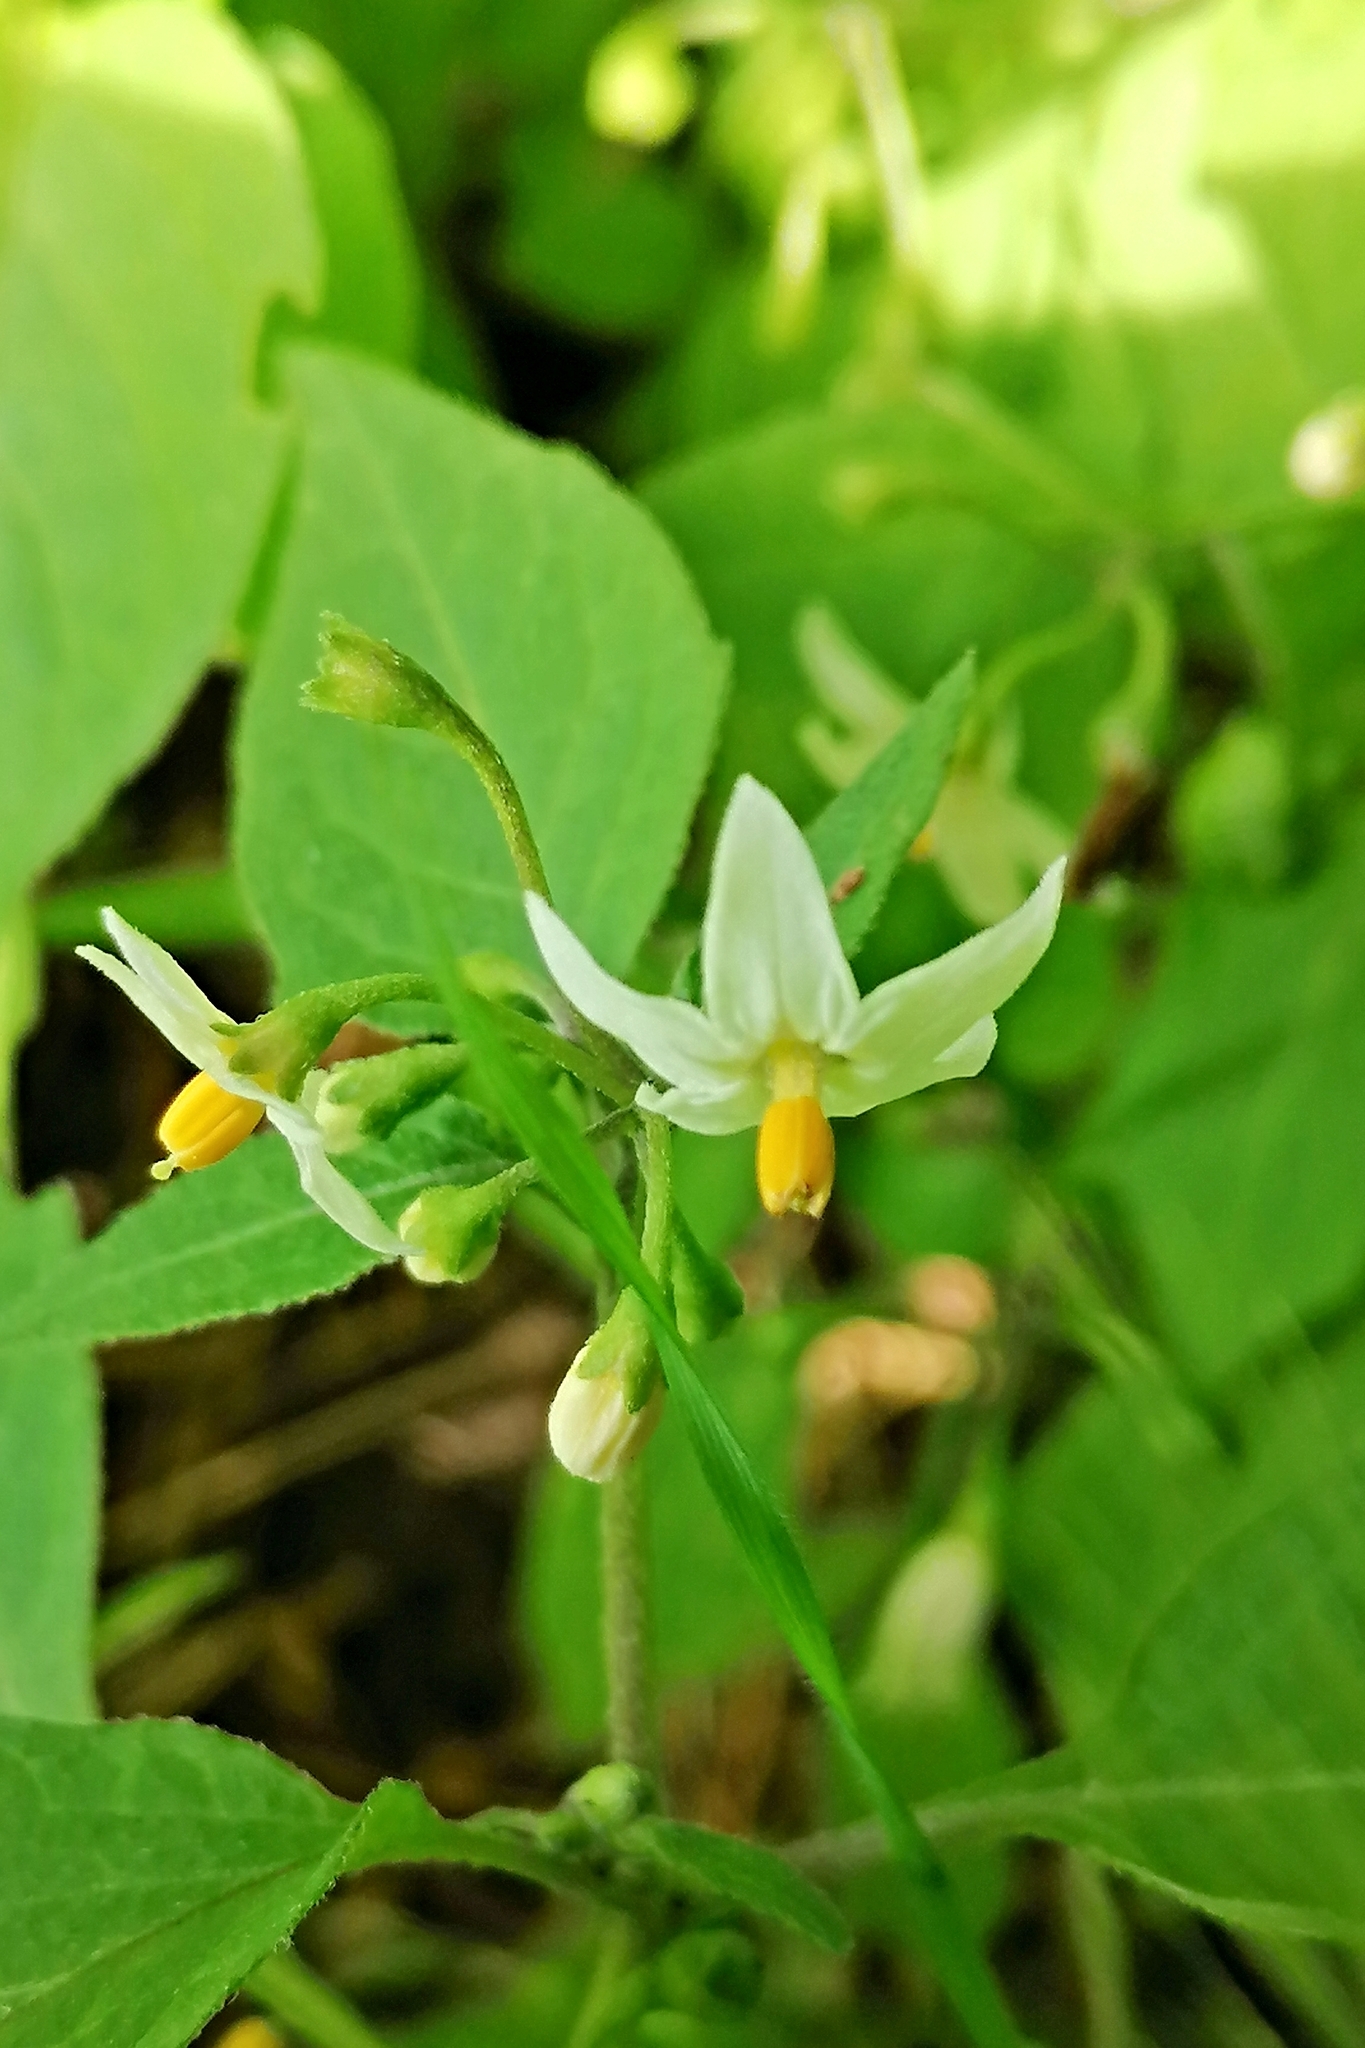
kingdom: Plantae
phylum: Tracheophyta
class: Magnoliopsida
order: Solanales
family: Solanaceae
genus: Solanum
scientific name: Solanum nigrum
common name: Black nightshade
